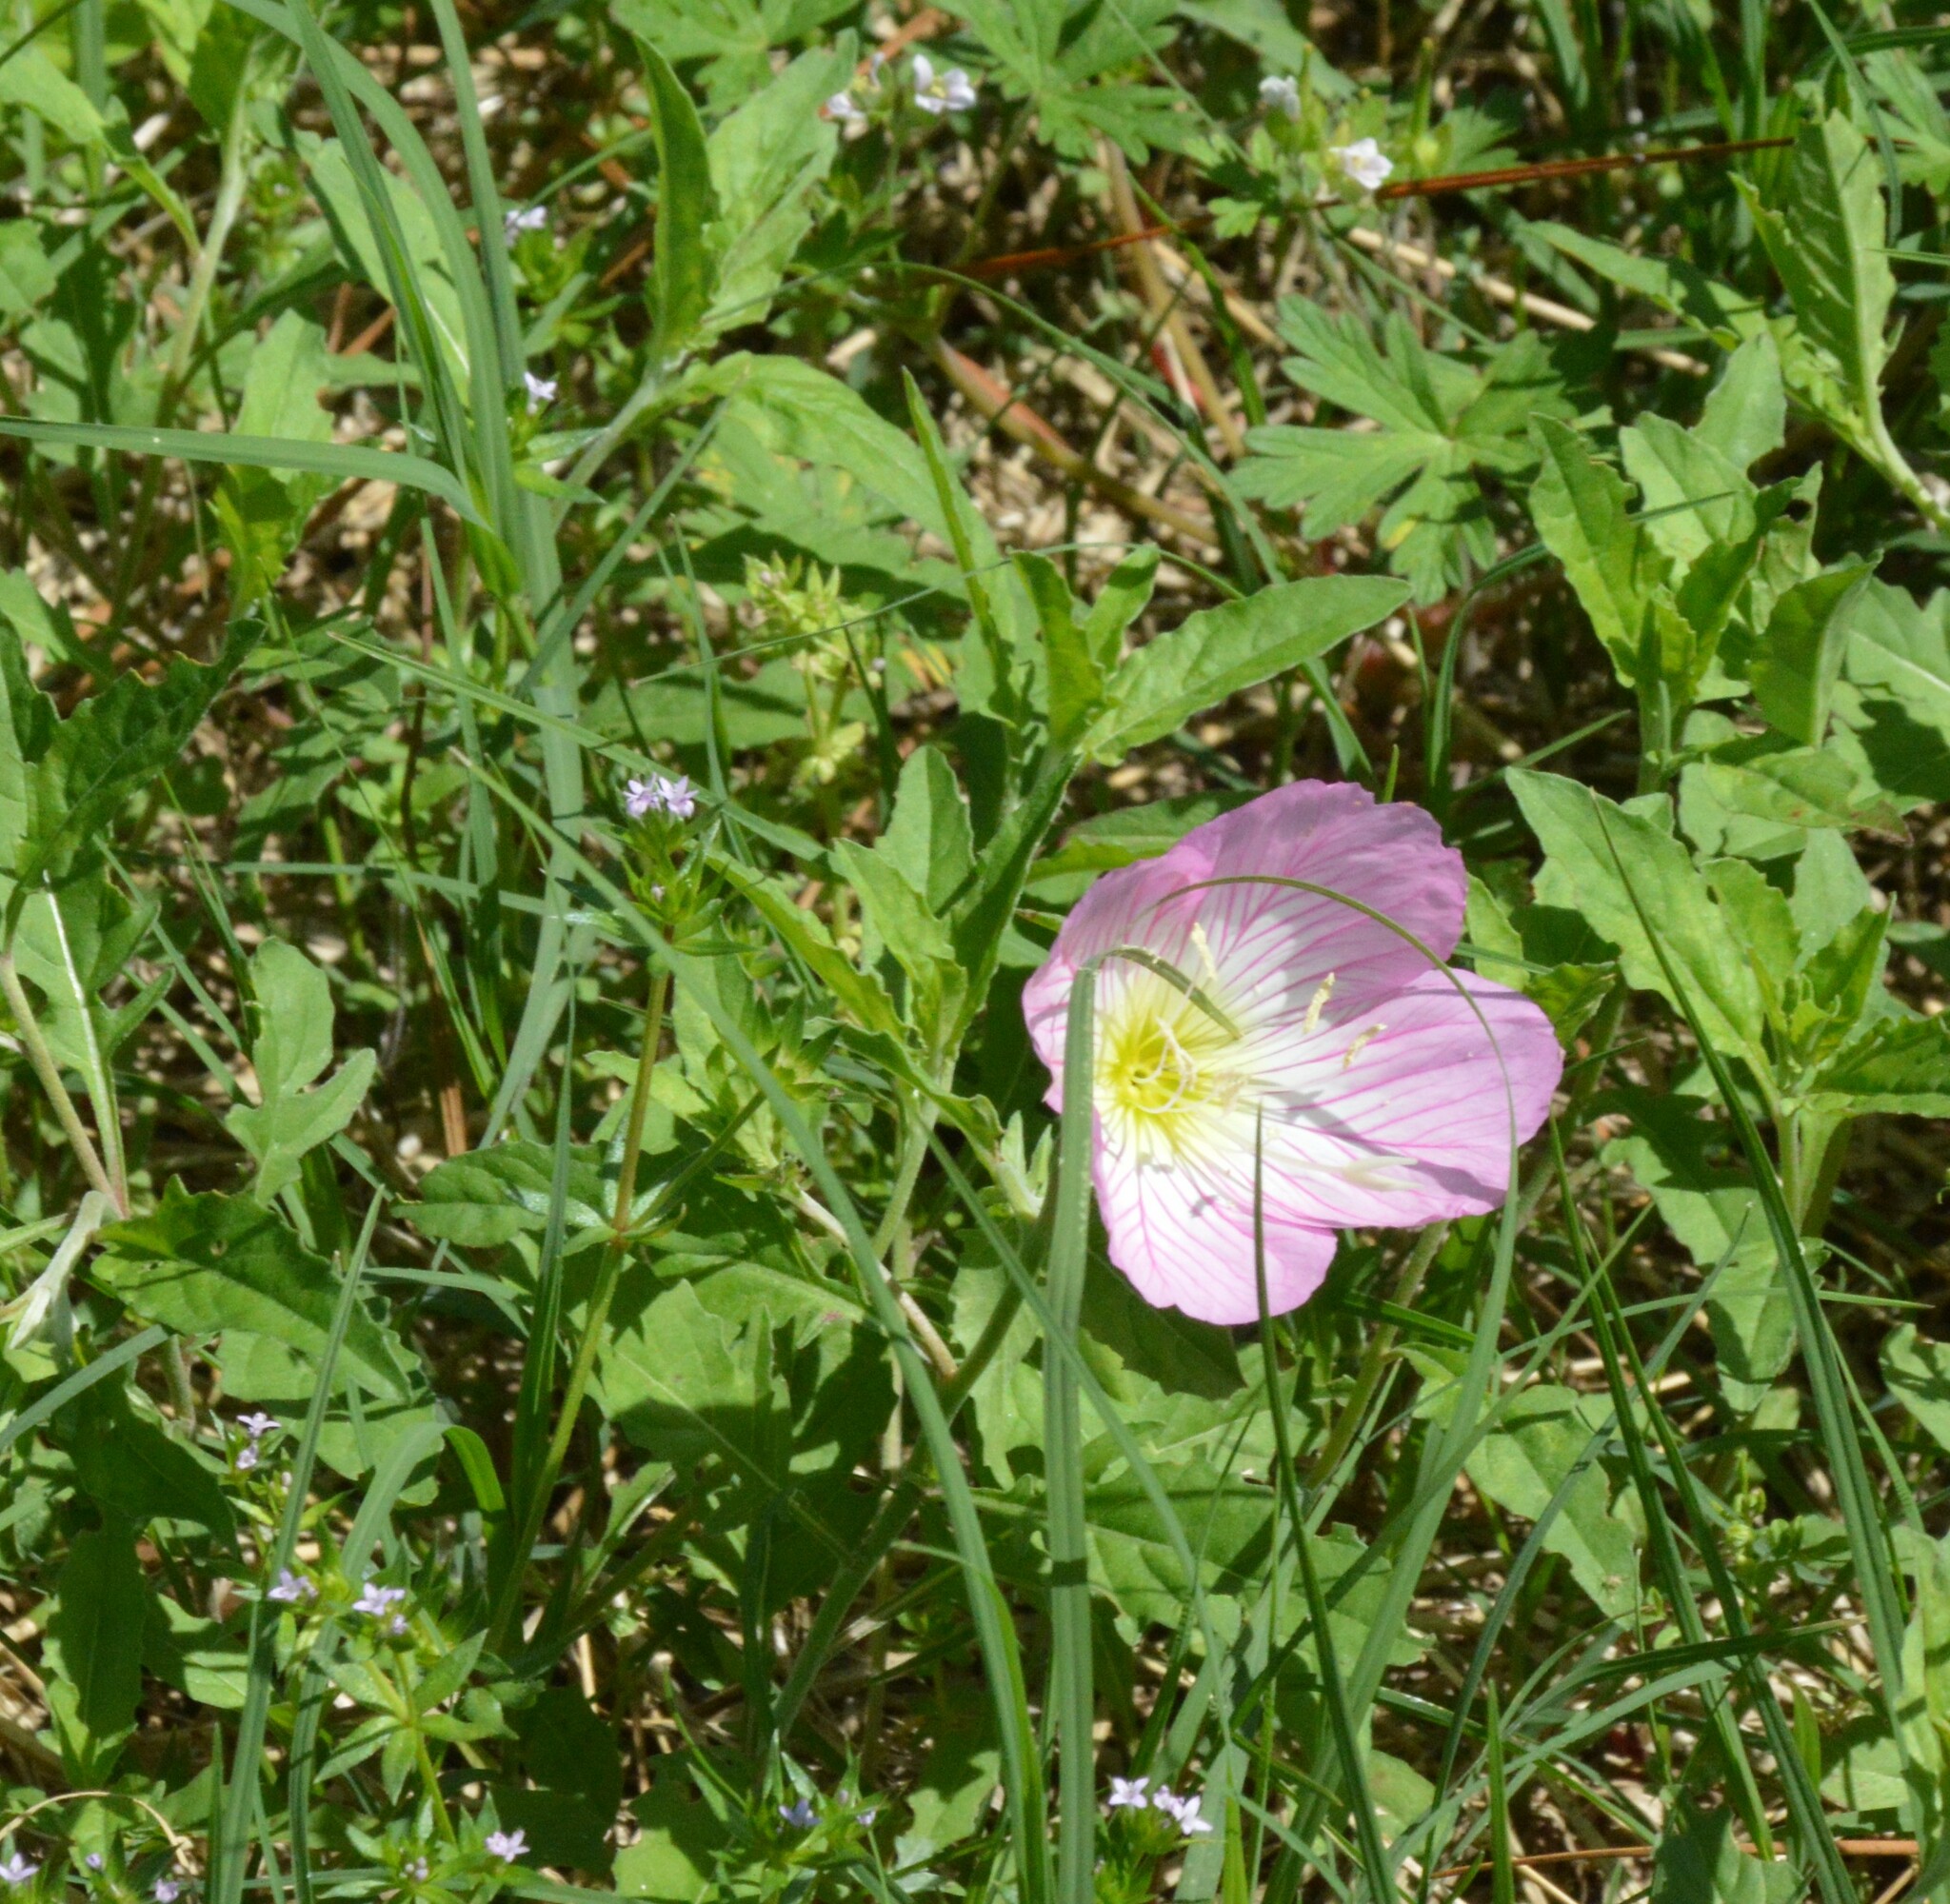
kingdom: Plantae
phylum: Tracheophyta
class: Magnoliopsida
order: Myrtales
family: Onagraceae
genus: Oenothera
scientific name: Oenothera speciosa
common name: White evening-primrose
